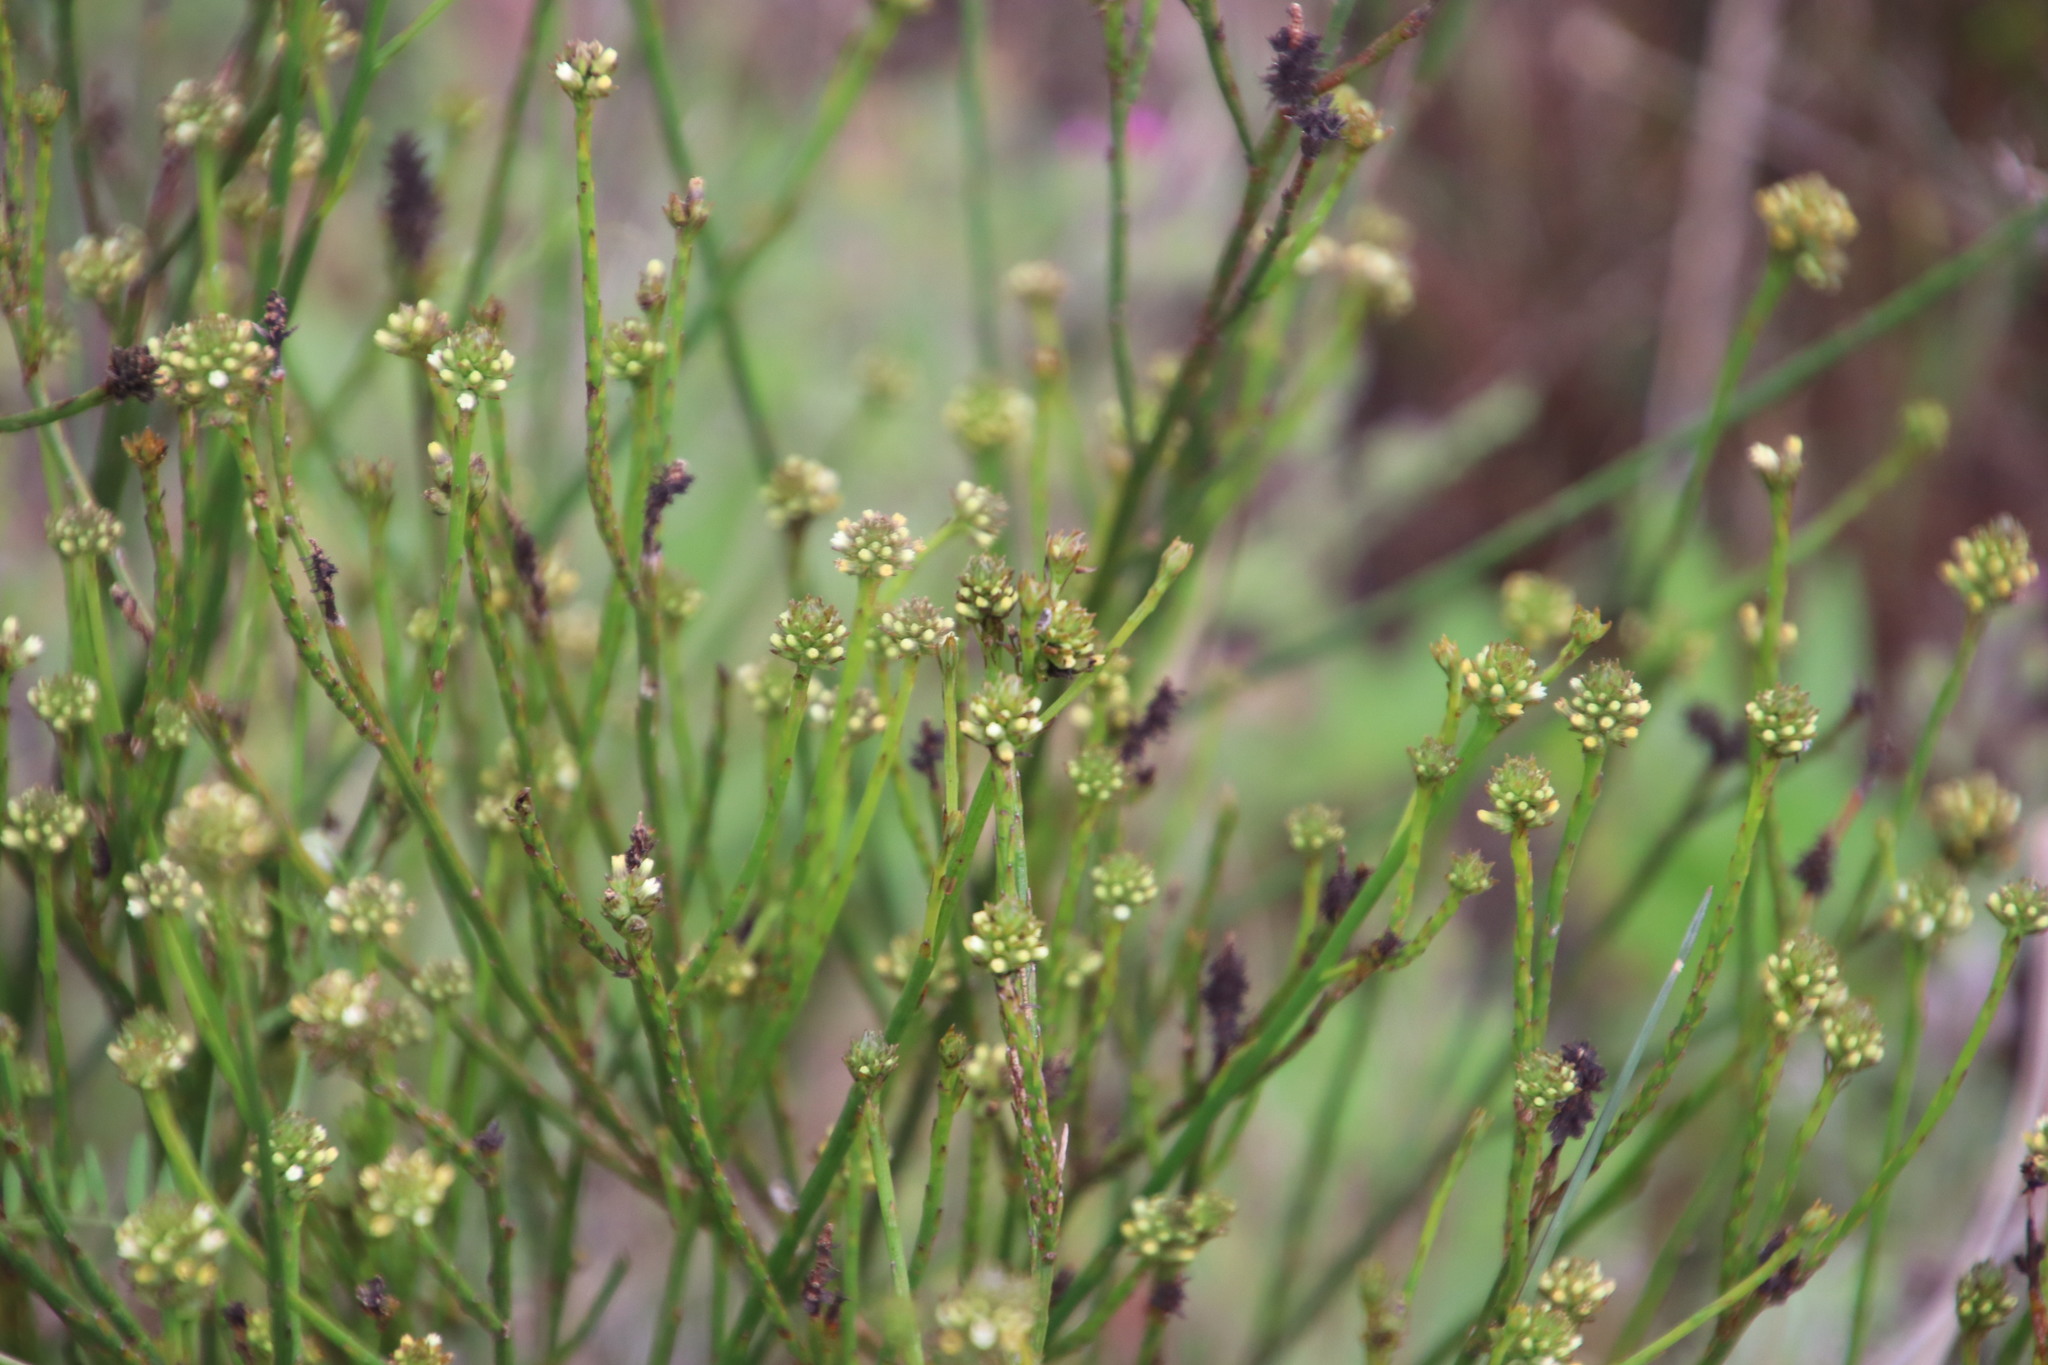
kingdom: Plantae
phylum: Tracheophyta
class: Magnoliopsida
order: Santalales
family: Thesiaceae
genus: Thesium
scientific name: Thesium aggregatum
